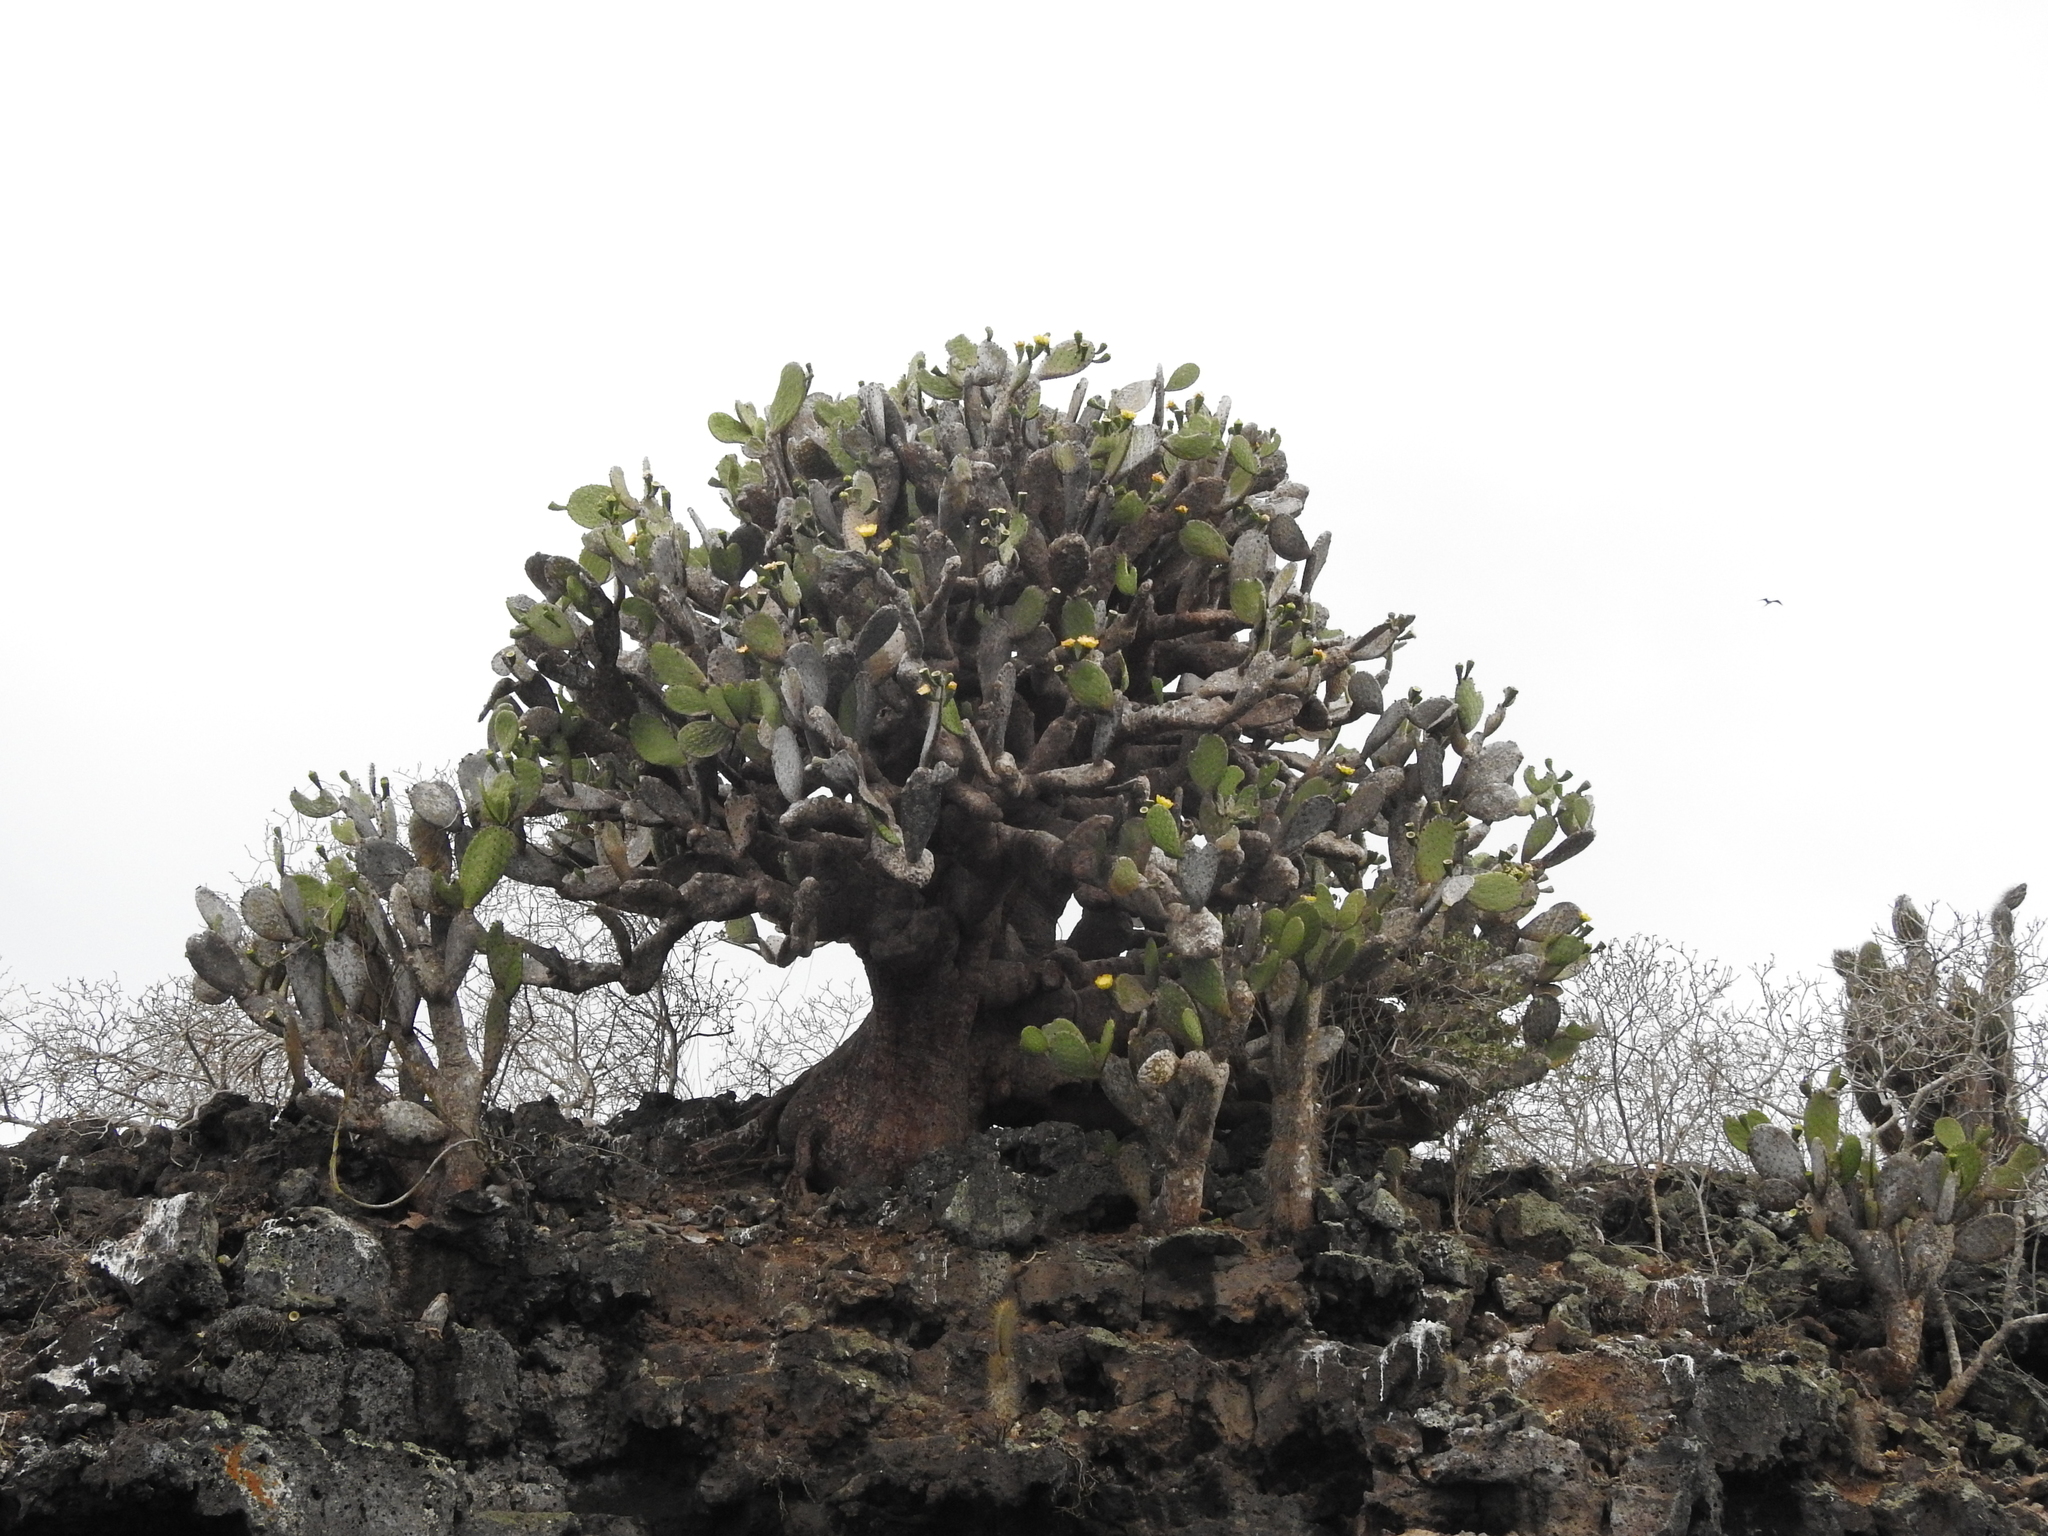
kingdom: Plantae
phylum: Tracheophyta
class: Magnoliopsida
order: Caryophyllales
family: Cactaceae
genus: Opuntia
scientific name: Opuntia galapageia
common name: Galápagos prickly pear
